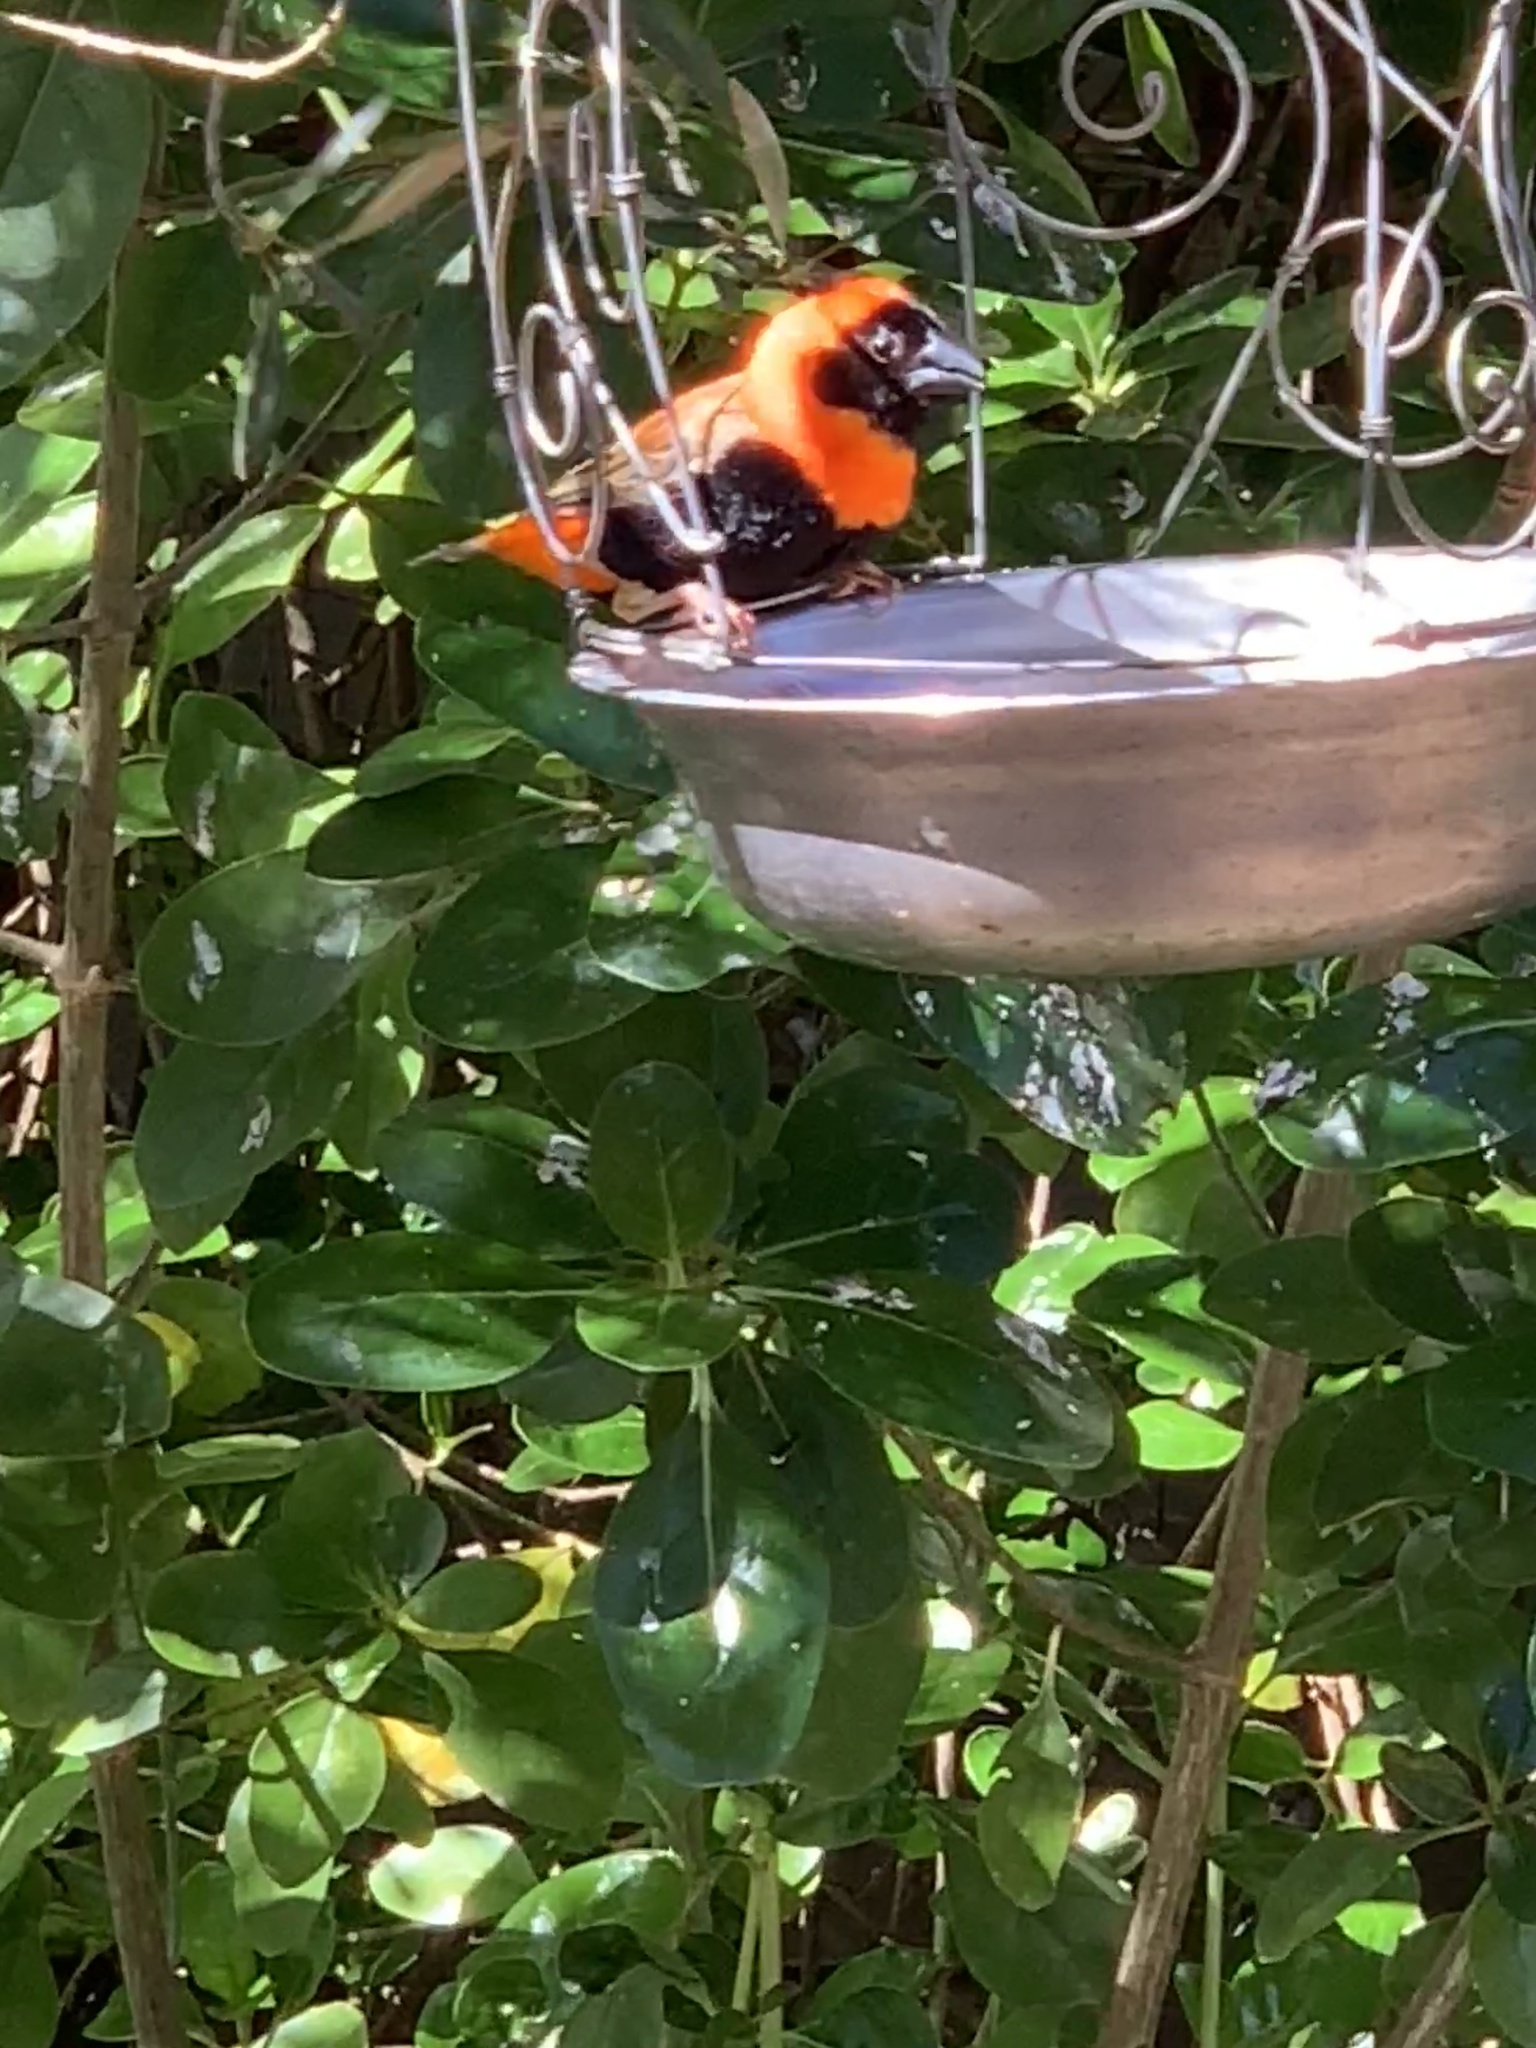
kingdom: Animalia
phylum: Chordata
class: Aves
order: Passeriformes
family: Ploceidae
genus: Euplectes
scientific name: Euplectes orix
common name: Southern red bishop
